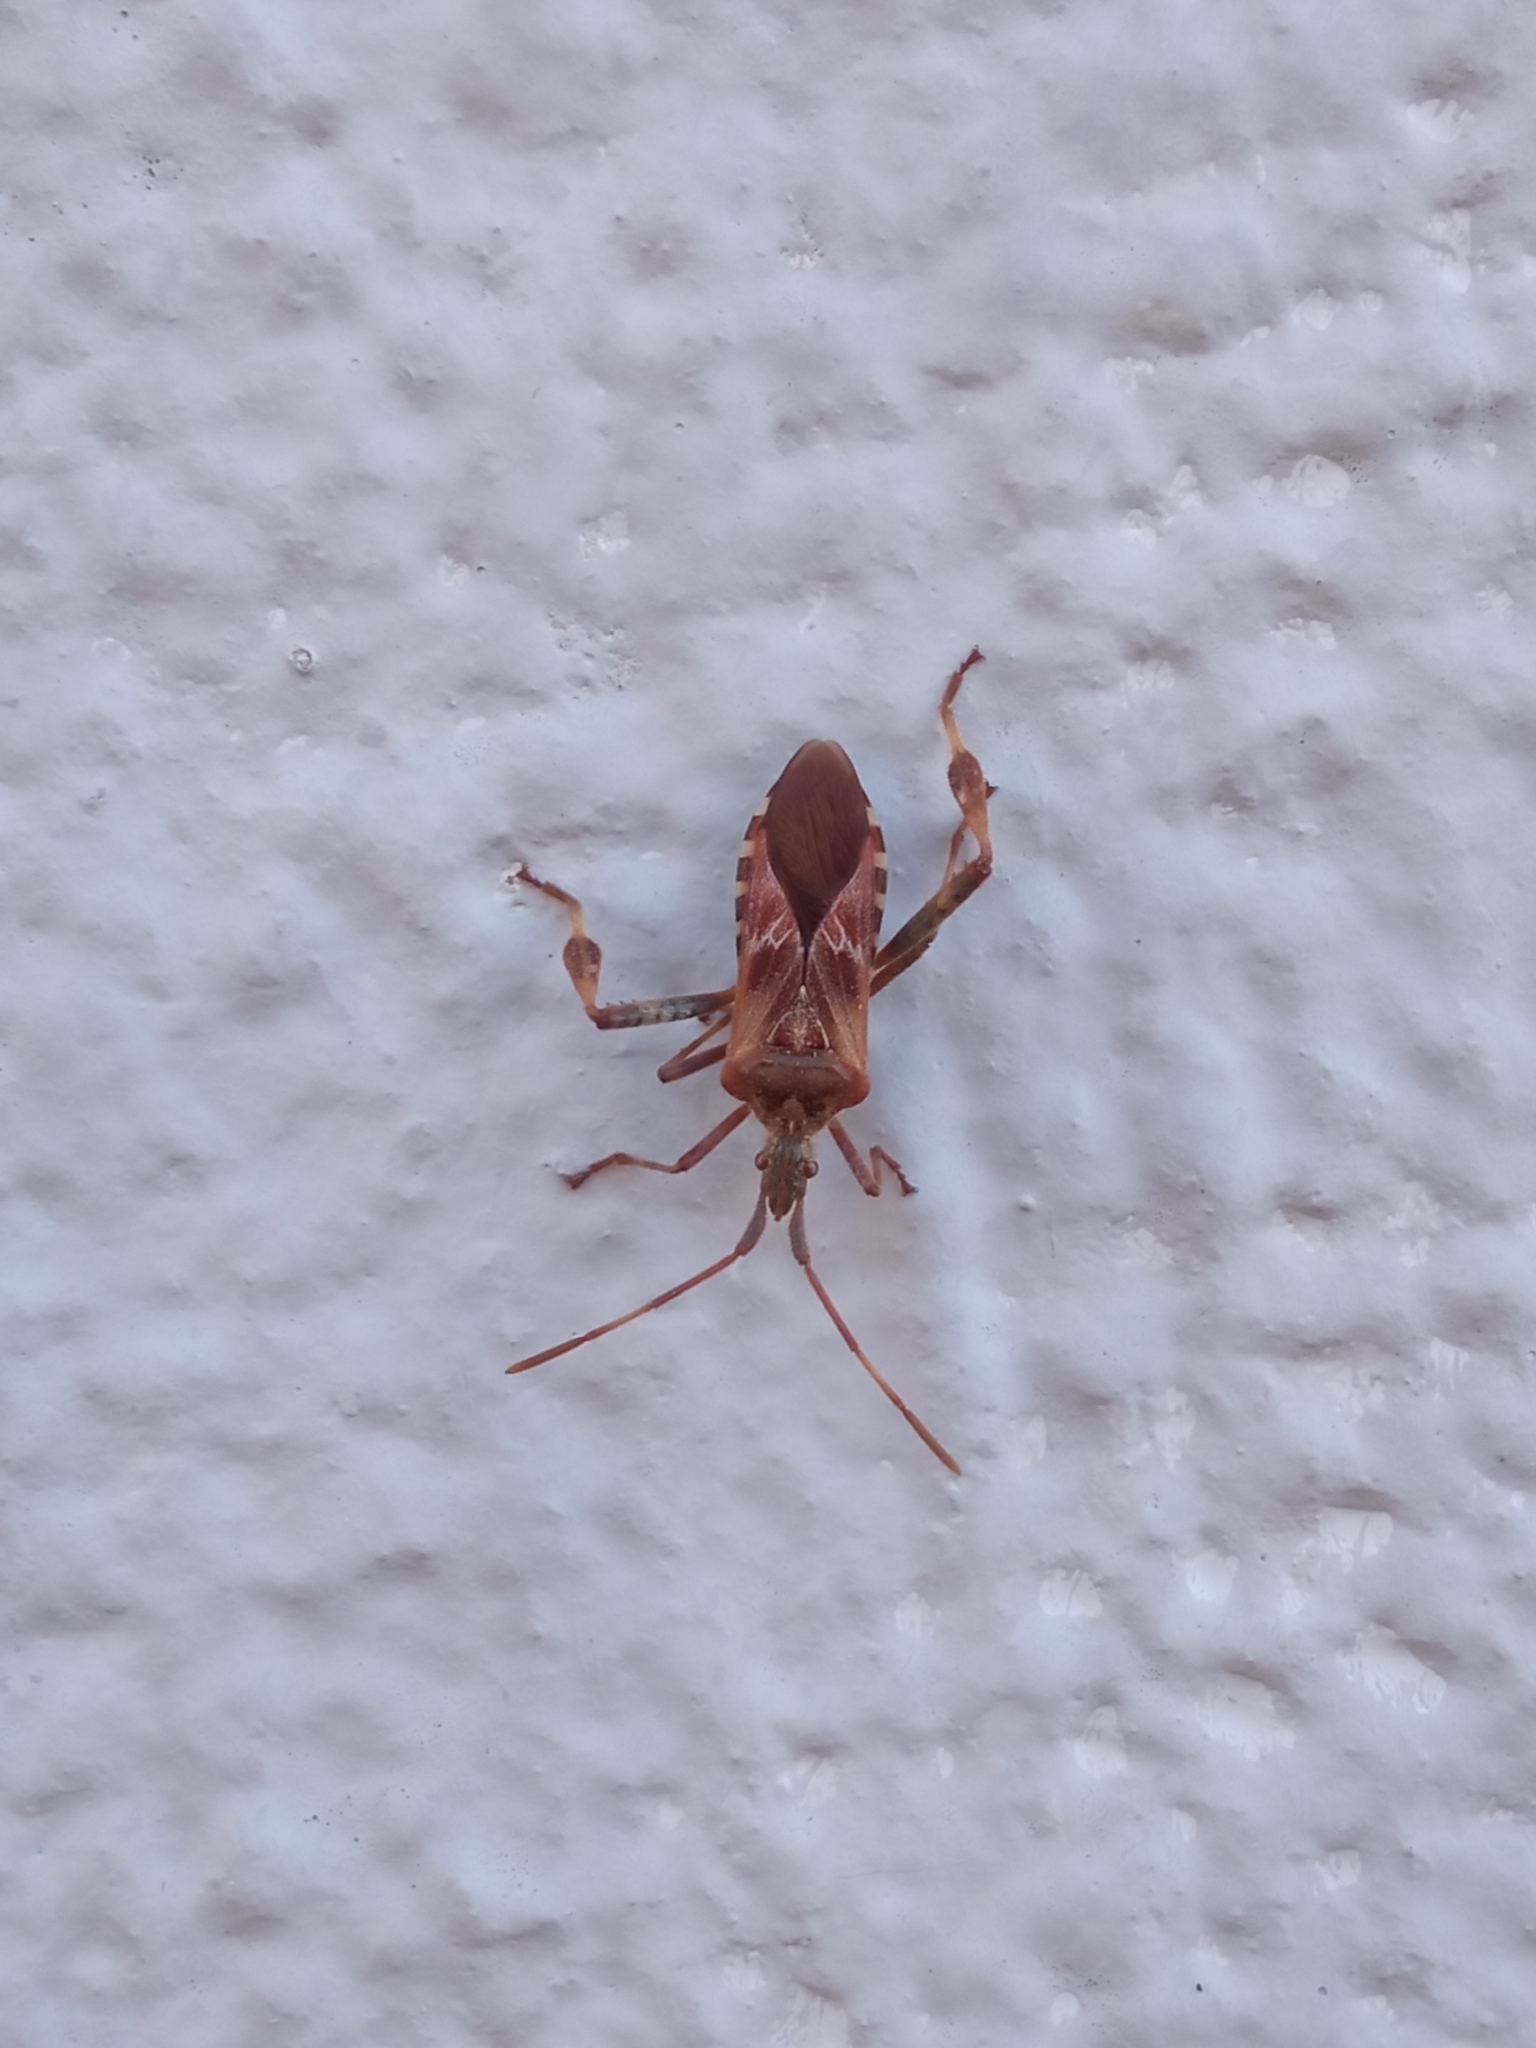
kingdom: Animalia
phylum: Arthropoda
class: Insecta
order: Hemiptera
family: Coreidae
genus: Leptoglossus
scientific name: Leptoglossus occidentalis
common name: Western conifer-seed bug
